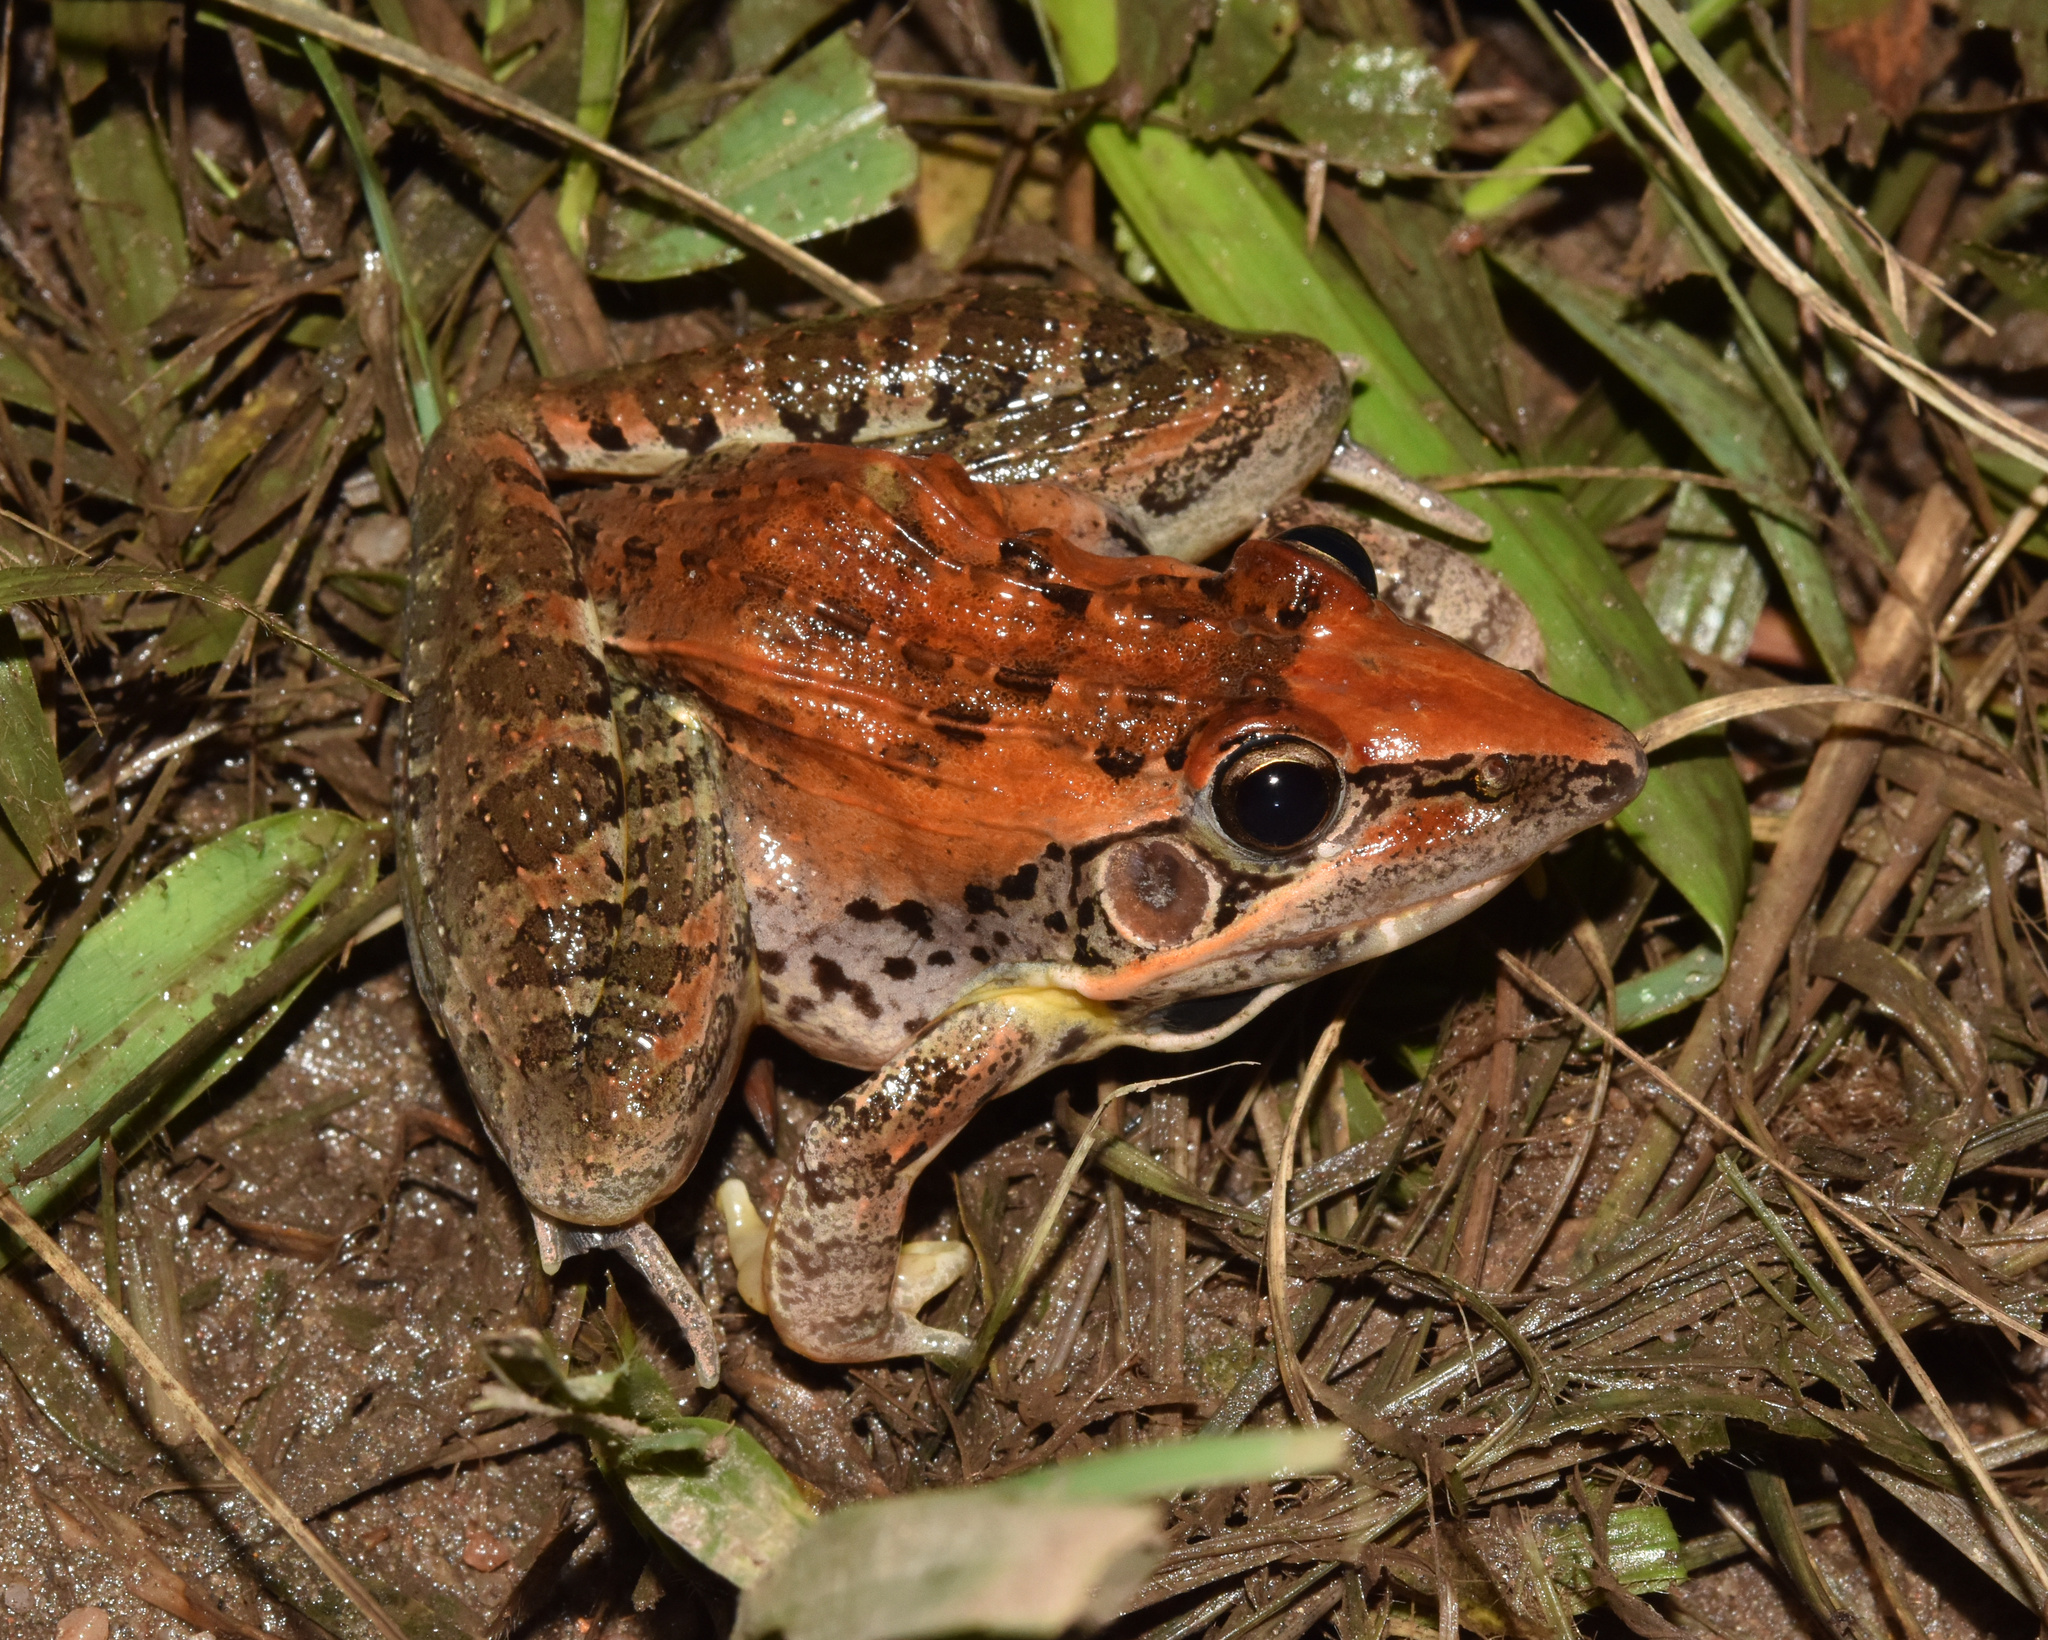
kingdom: Animalia
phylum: Chordata
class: Amphibia
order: Anura
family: Ptychadenidae
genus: Ptychadena
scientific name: Ptychadena oxyrhynchus
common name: Sharp-nosed ridged frog
